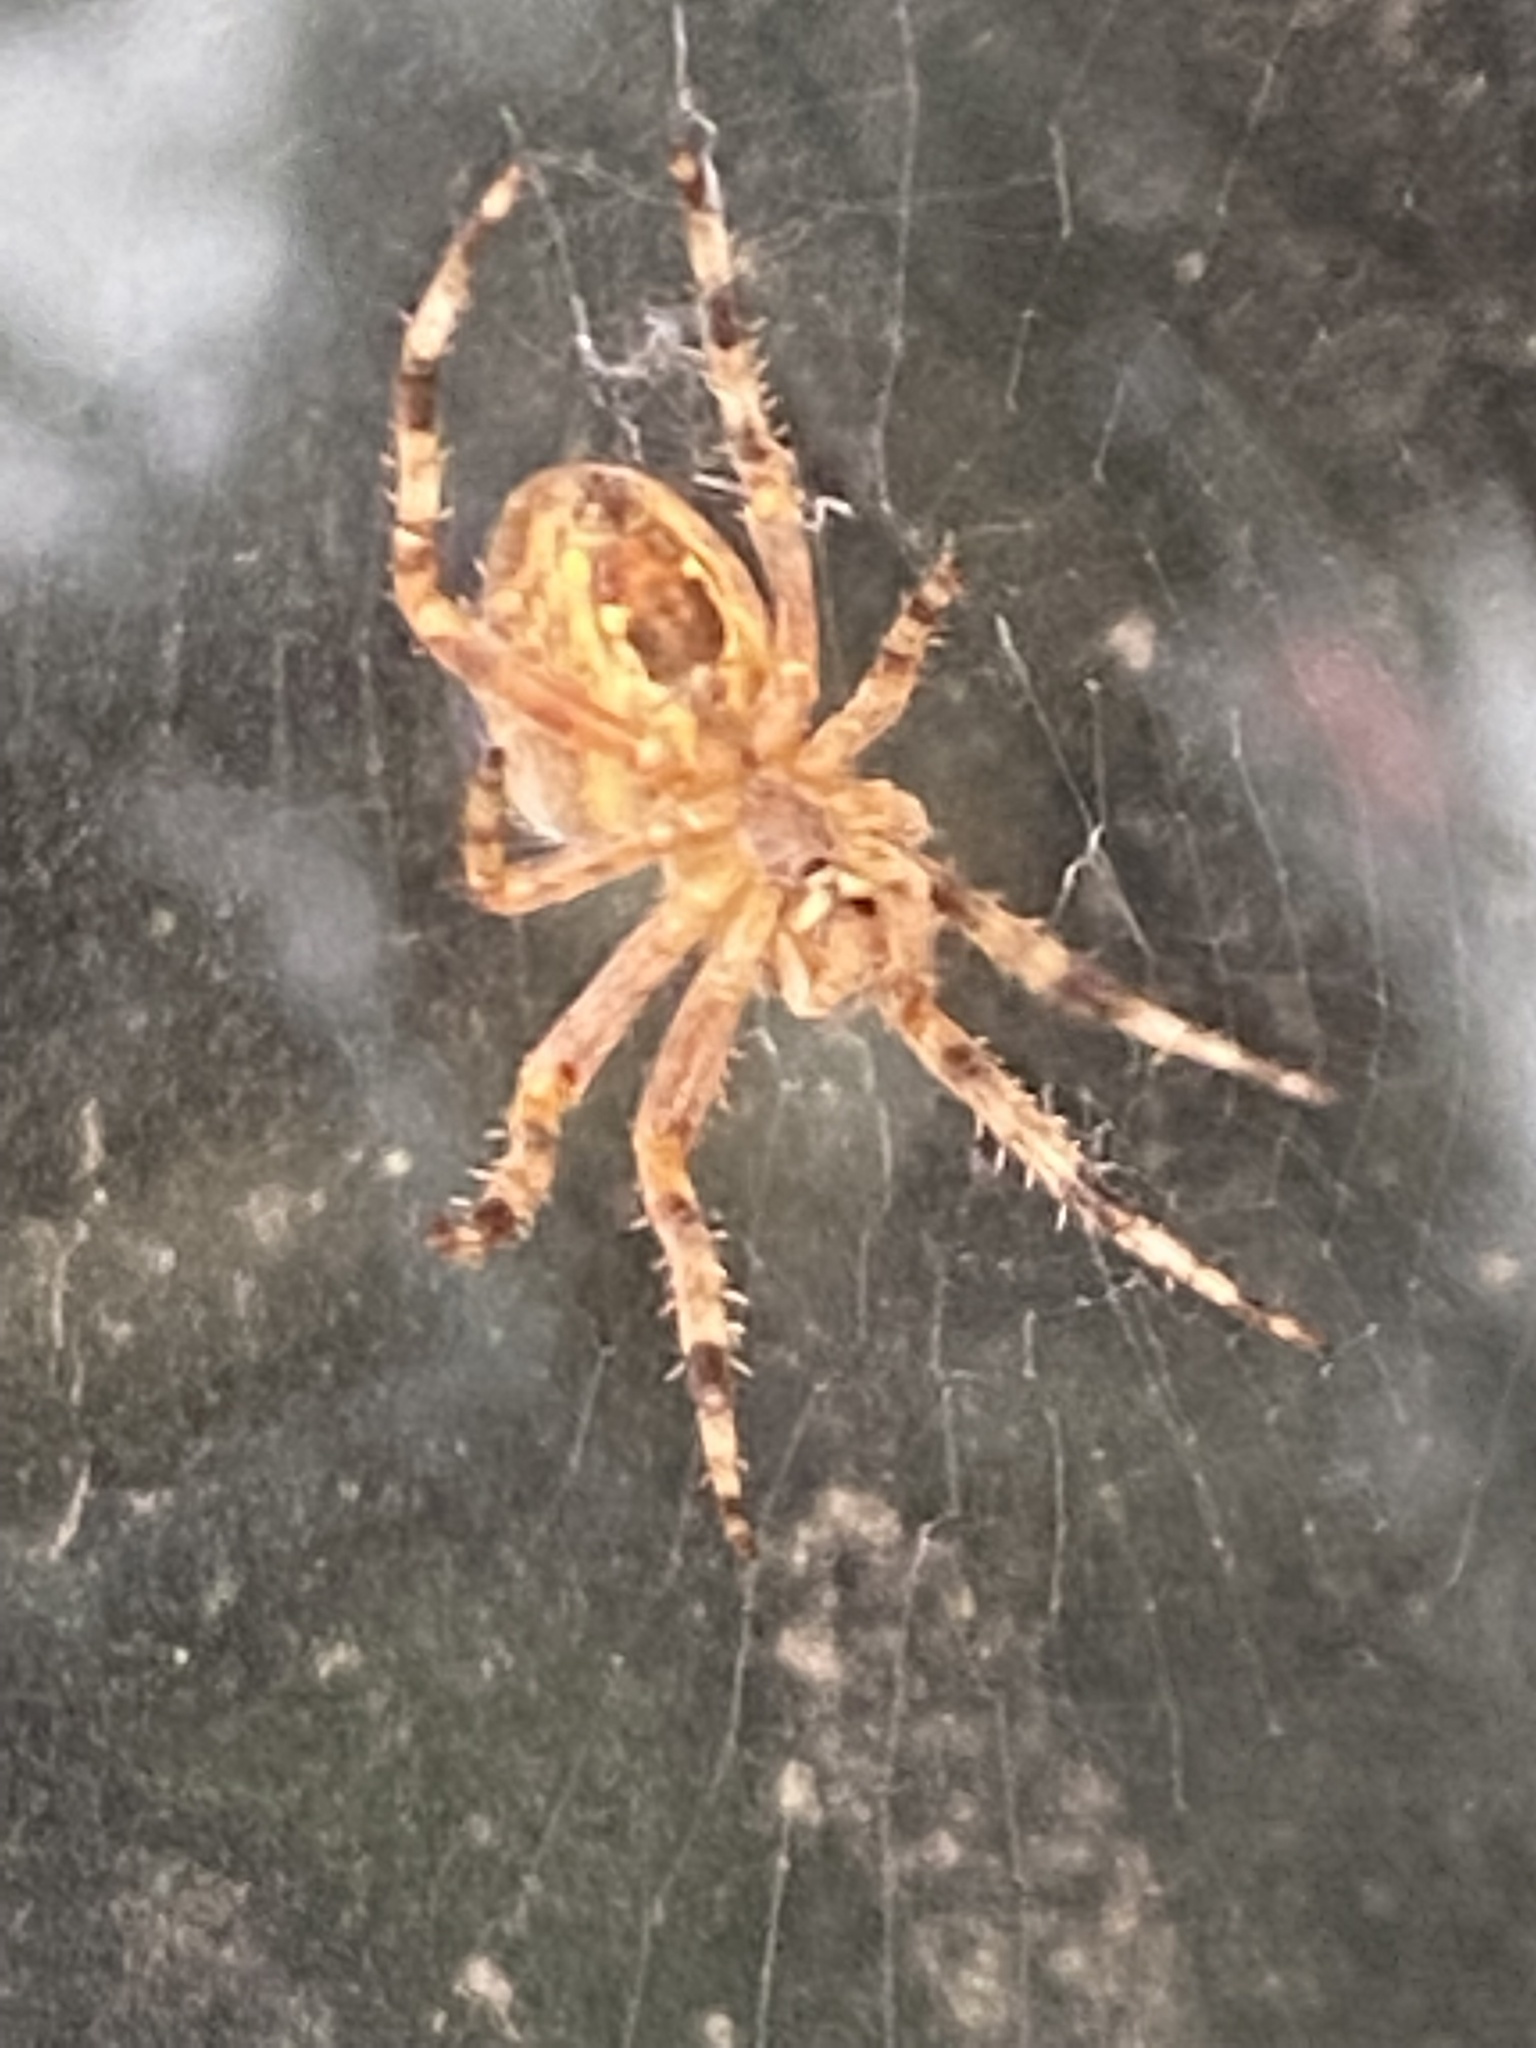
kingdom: Animalia
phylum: Arthropoda
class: Arachnida
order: Araneae
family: Araneidae
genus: Araneus
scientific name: Araneus diadematus
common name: Cross orbweaver
